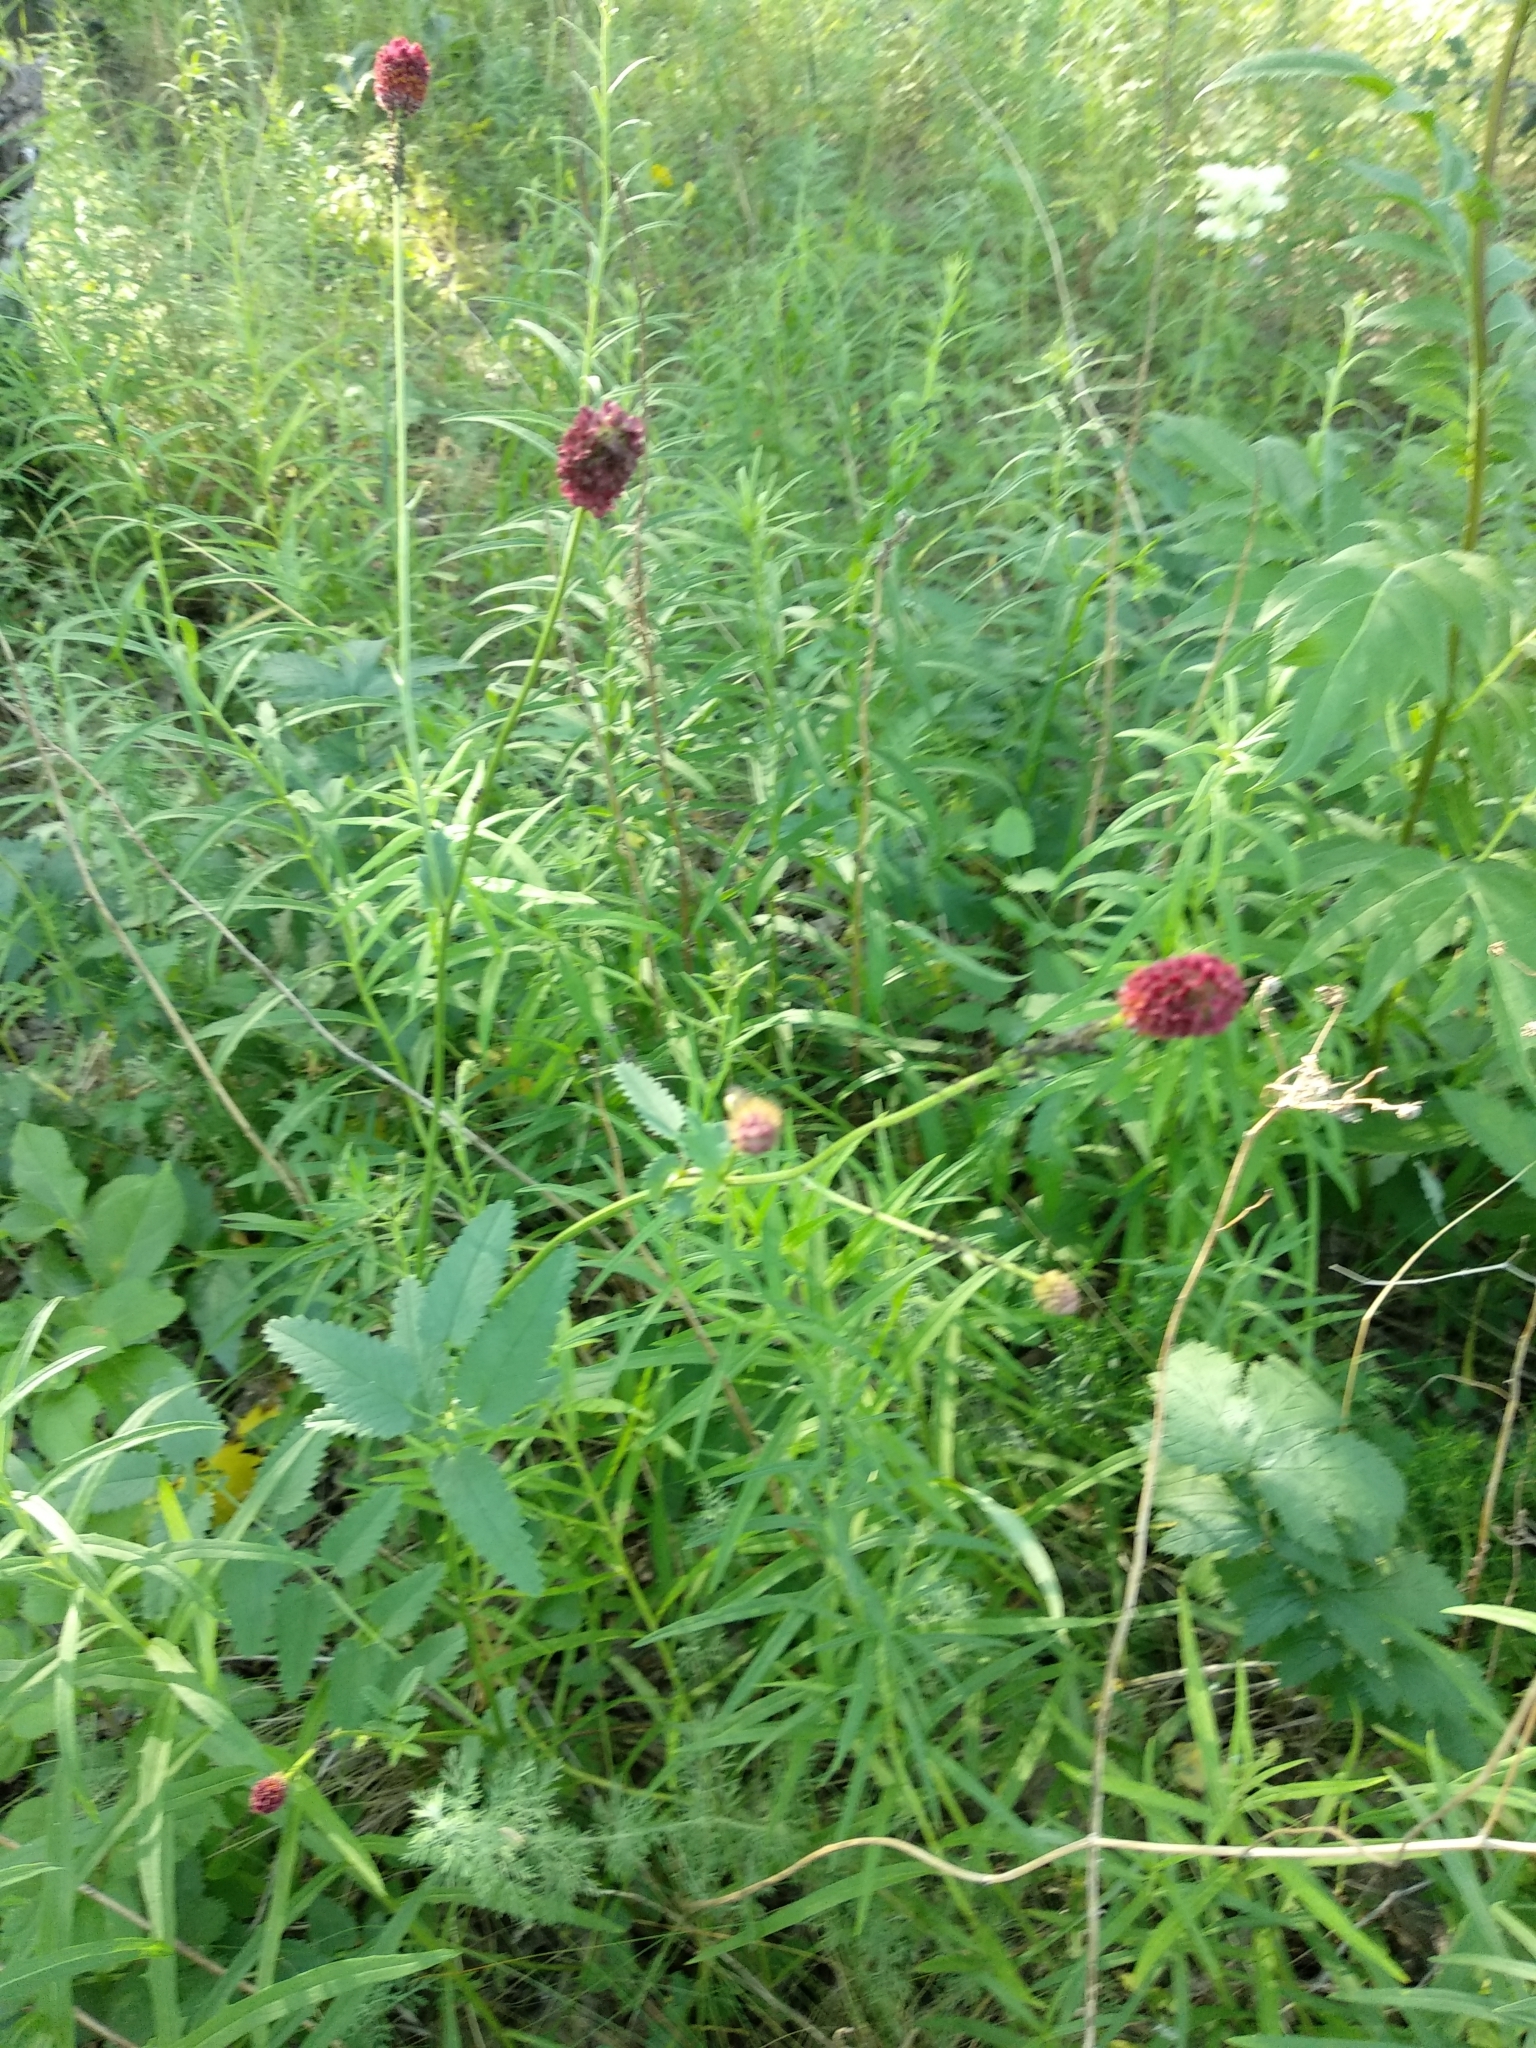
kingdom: Plantae
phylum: Tracheophyta
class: Magnoliopsida
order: Rosales
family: Rosaceae
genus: Sanguisorba
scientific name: Sanguisorba officinalis
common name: Great burnet
